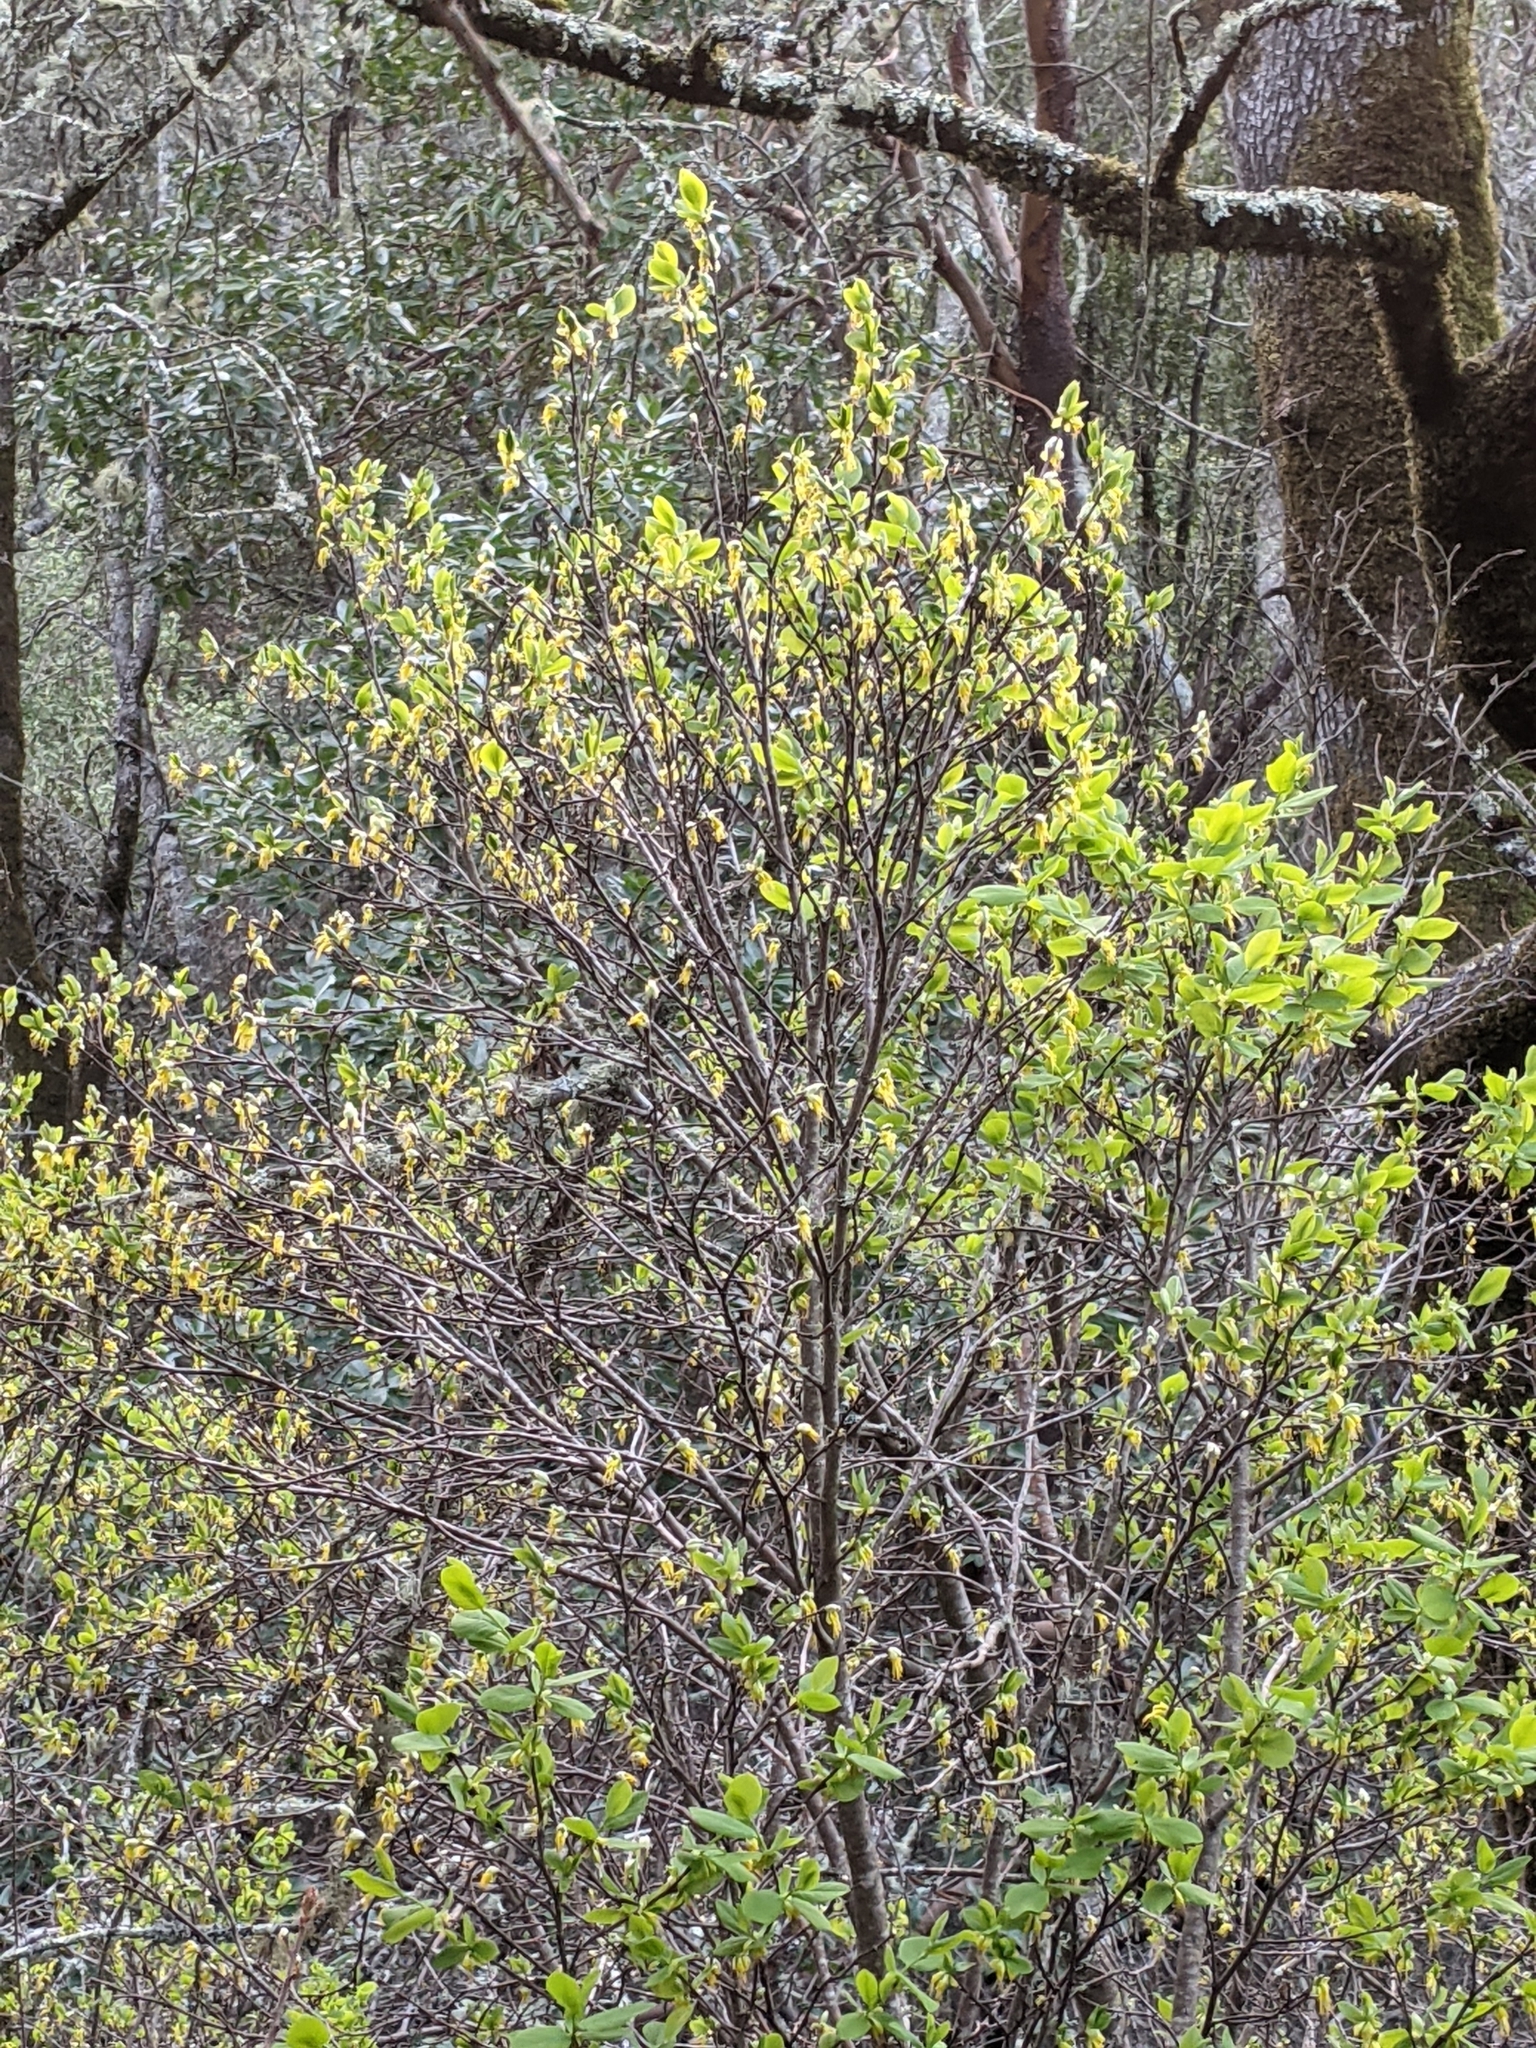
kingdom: Plantae
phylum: Tracheophyta
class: Magnoliopsida
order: Malvales
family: Thymelaeaceae
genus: Dirca
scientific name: Dirca occidentalis
